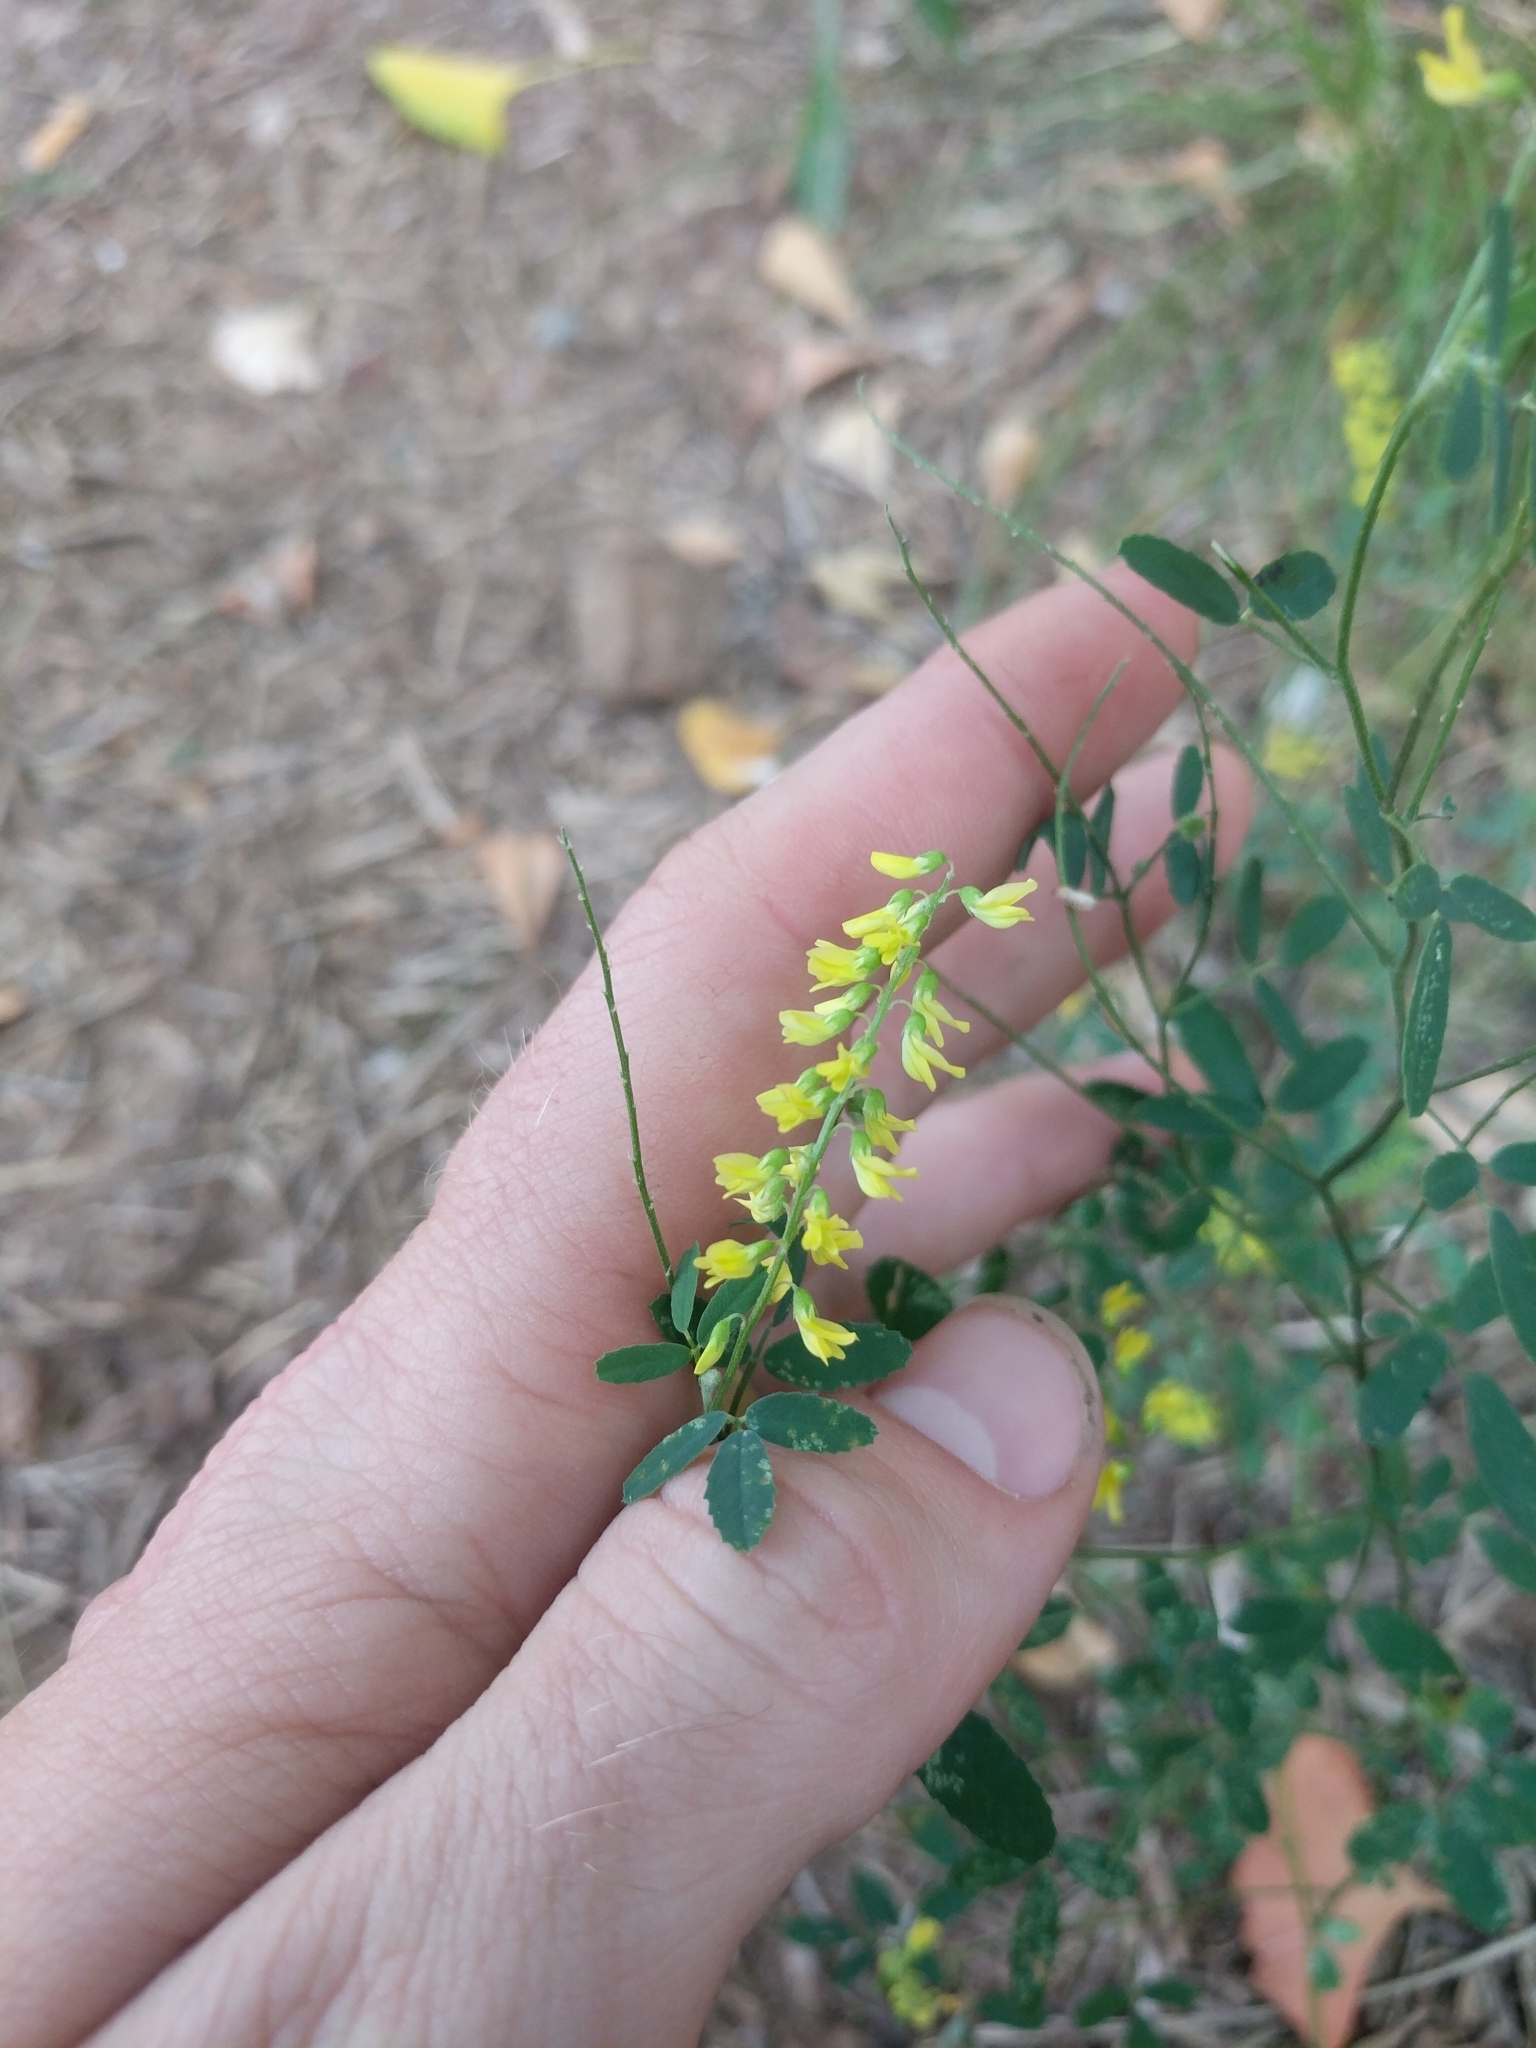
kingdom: Plantae
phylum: Tracheophyta
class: Magnoliopsida
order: Fabales
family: Fabaceae
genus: Melilotus
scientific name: Melilotus officinalis
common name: Sweetclover
